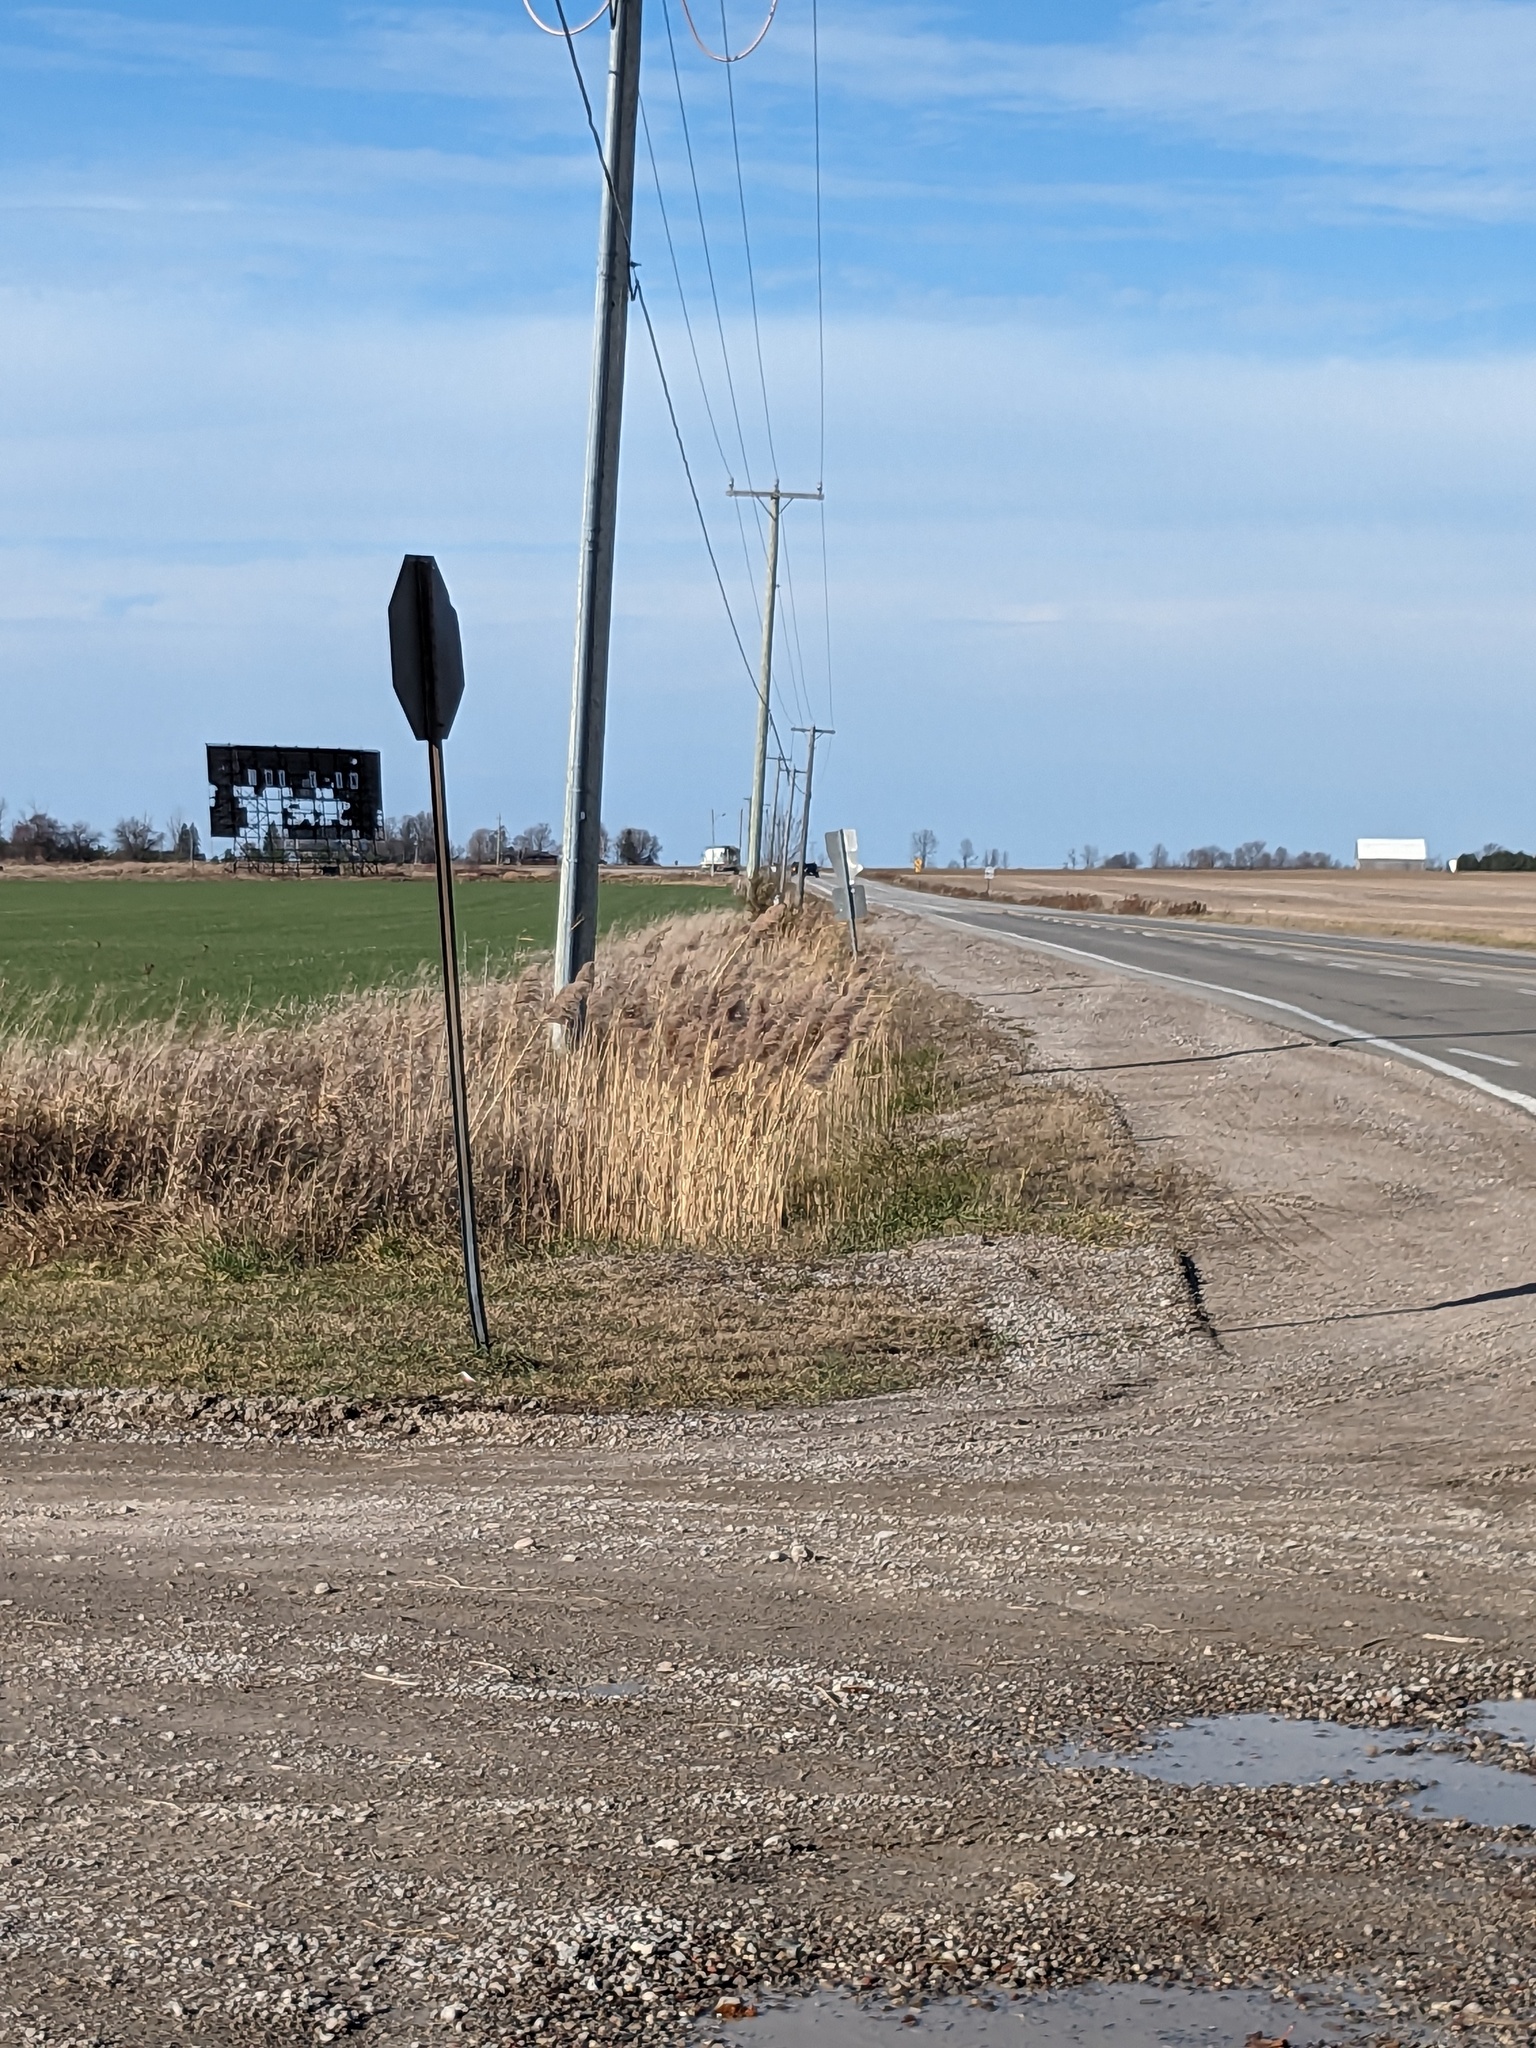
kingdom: Plantae
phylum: Tracheophyta
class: Liliopsida
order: Poales
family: Poaceae
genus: Phragmites
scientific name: Phragmites australis
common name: Common reed
